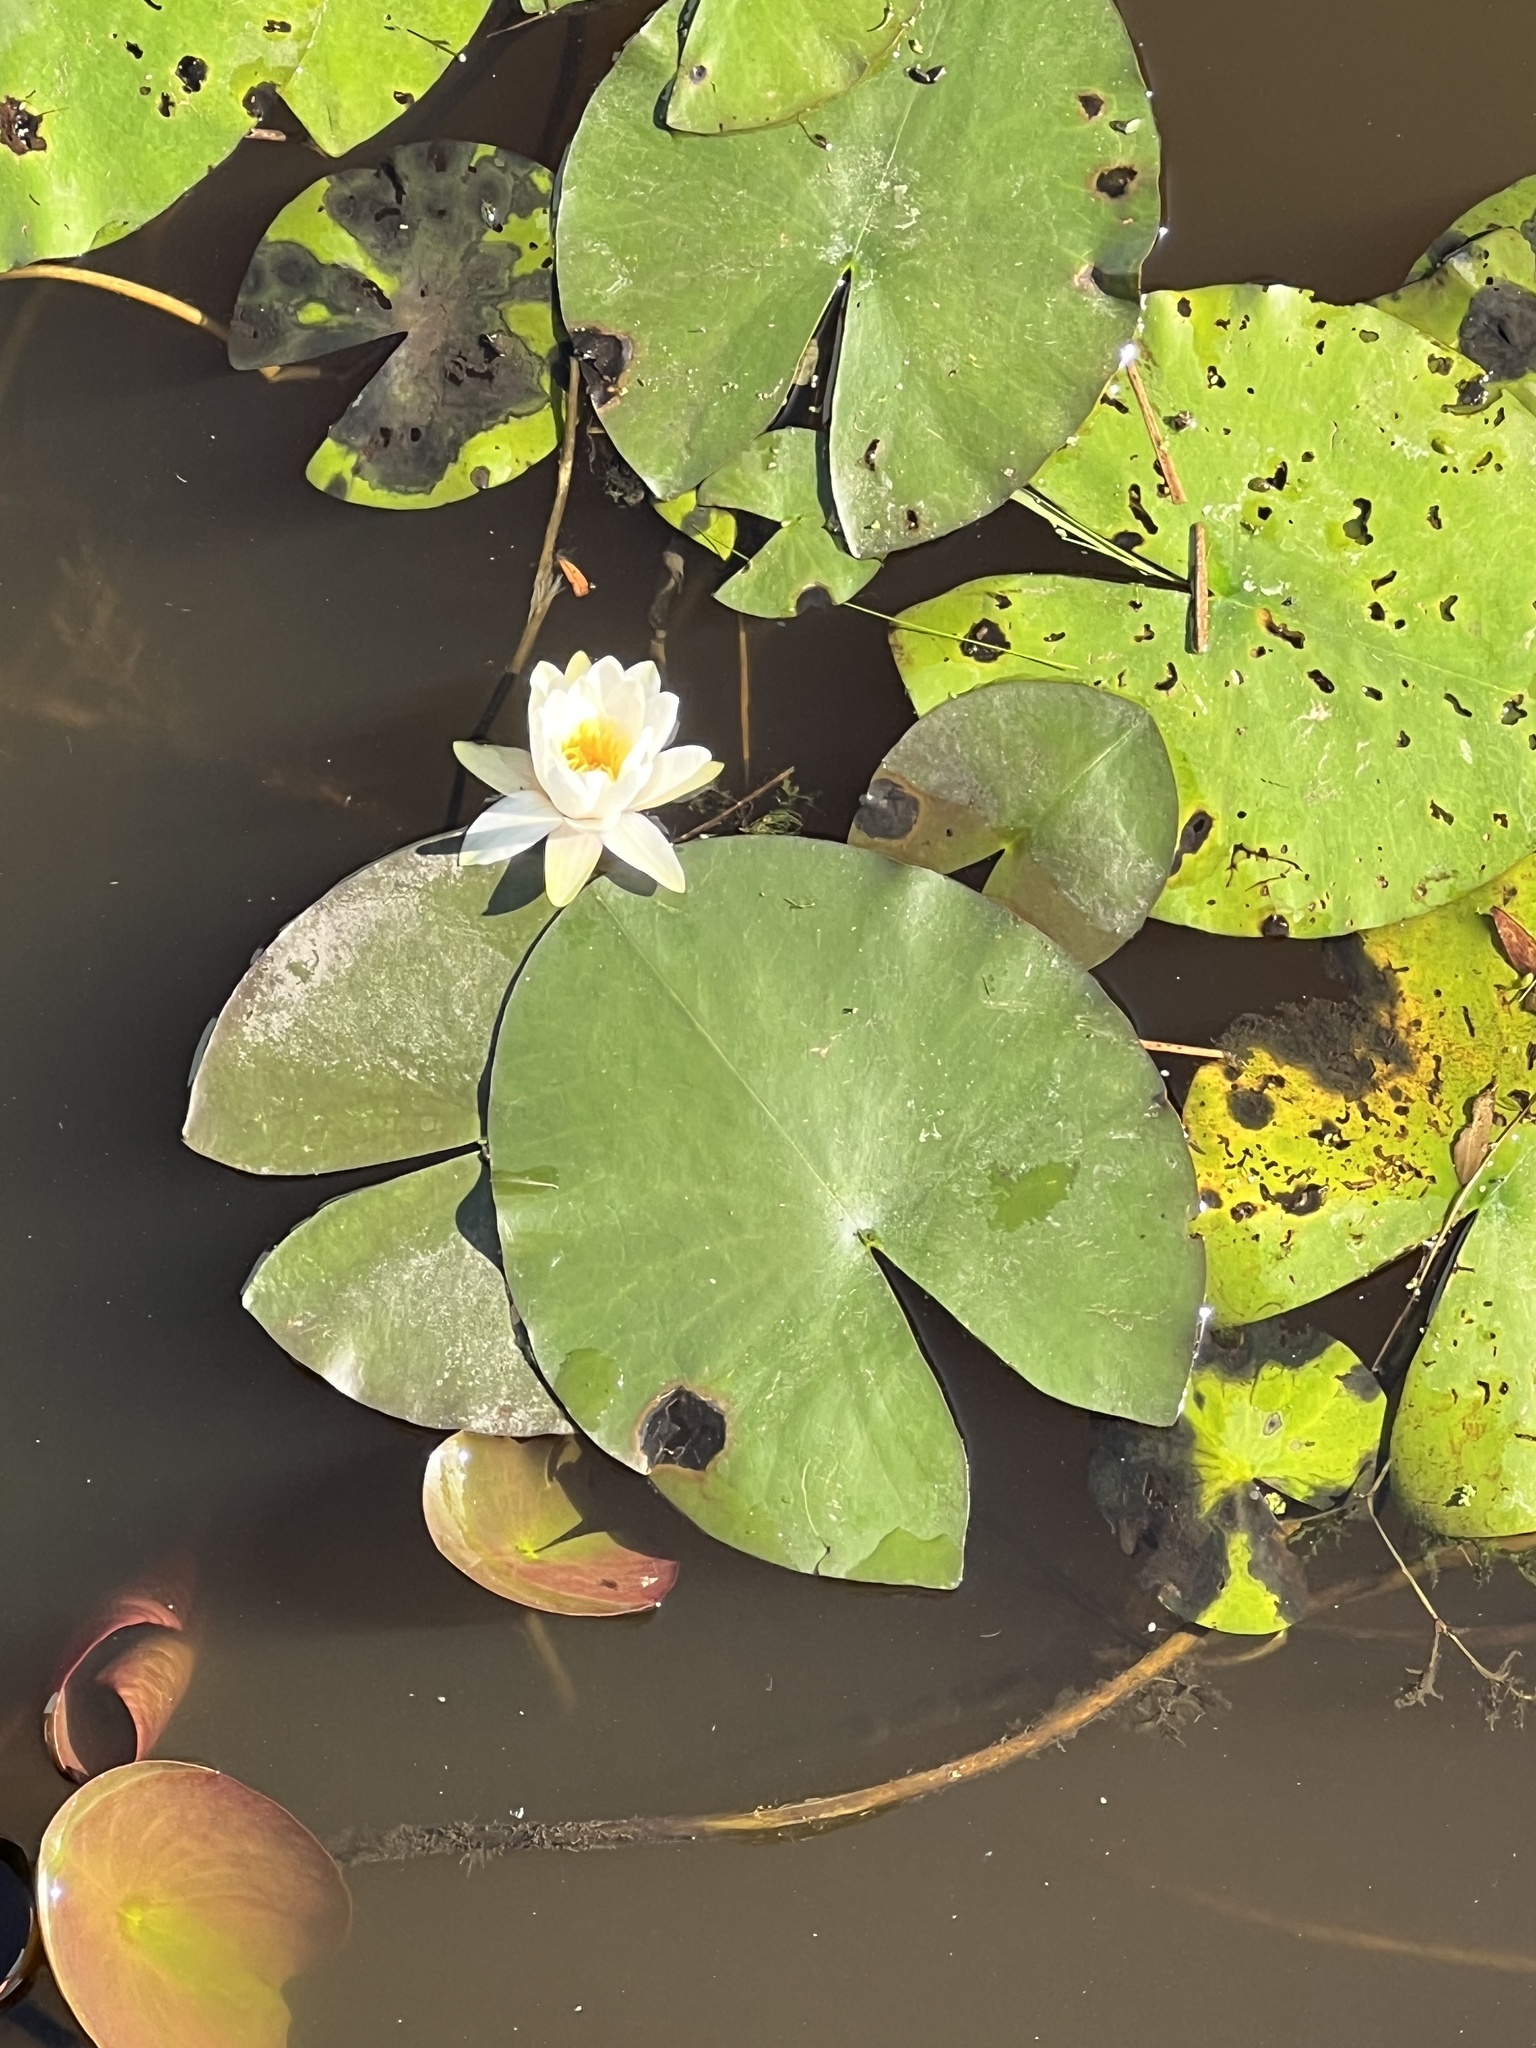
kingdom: Plantae
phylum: Tracheophyta
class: Magnoliopsida
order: Nymphaeales
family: Nymphaeaceae
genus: Nymphaea
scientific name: Nymphaea alba
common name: White water-lily
